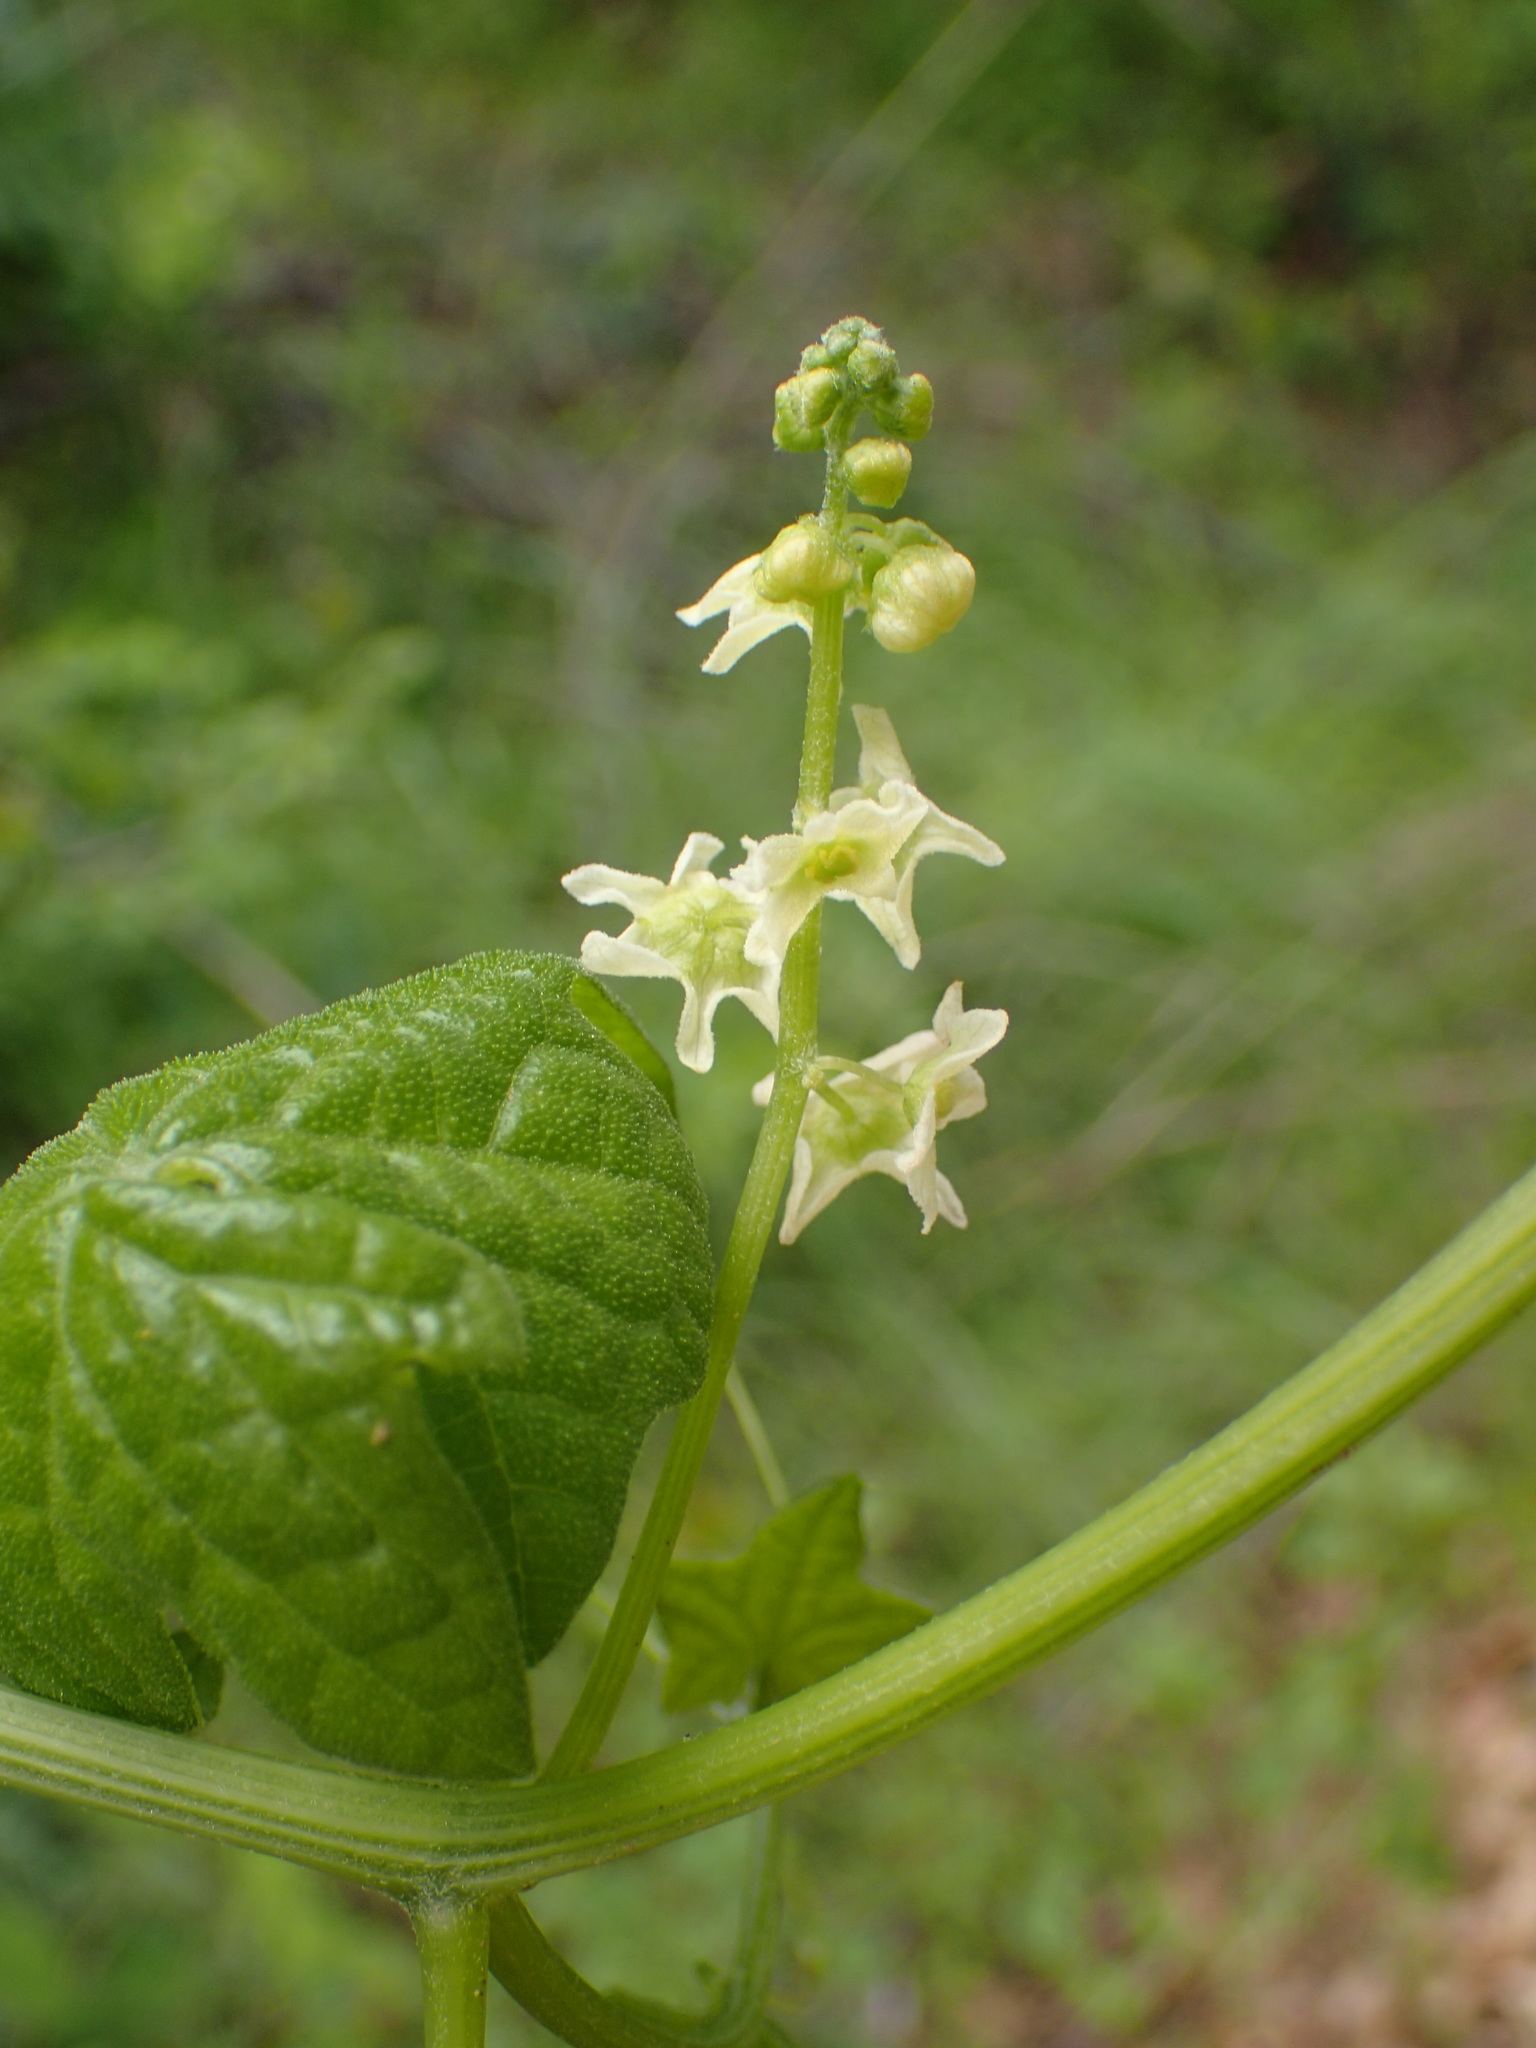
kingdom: Plantae
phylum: Tracheophyta
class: Magnoliopsida
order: Cucurbitales
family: Cucurbitaceae
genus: Marah
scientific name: Marah fabacea
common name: California manroot
